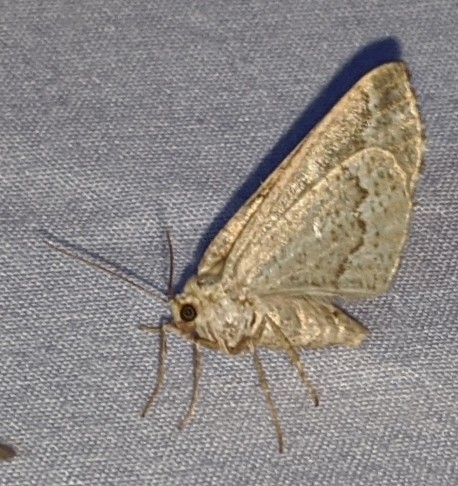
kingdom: Animalia
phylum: Arthropoda
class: Insecta
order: Lepidoptera
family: Geometridae
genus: Caripeta
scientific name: Caripeta divisata
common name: Gray spruce looper
